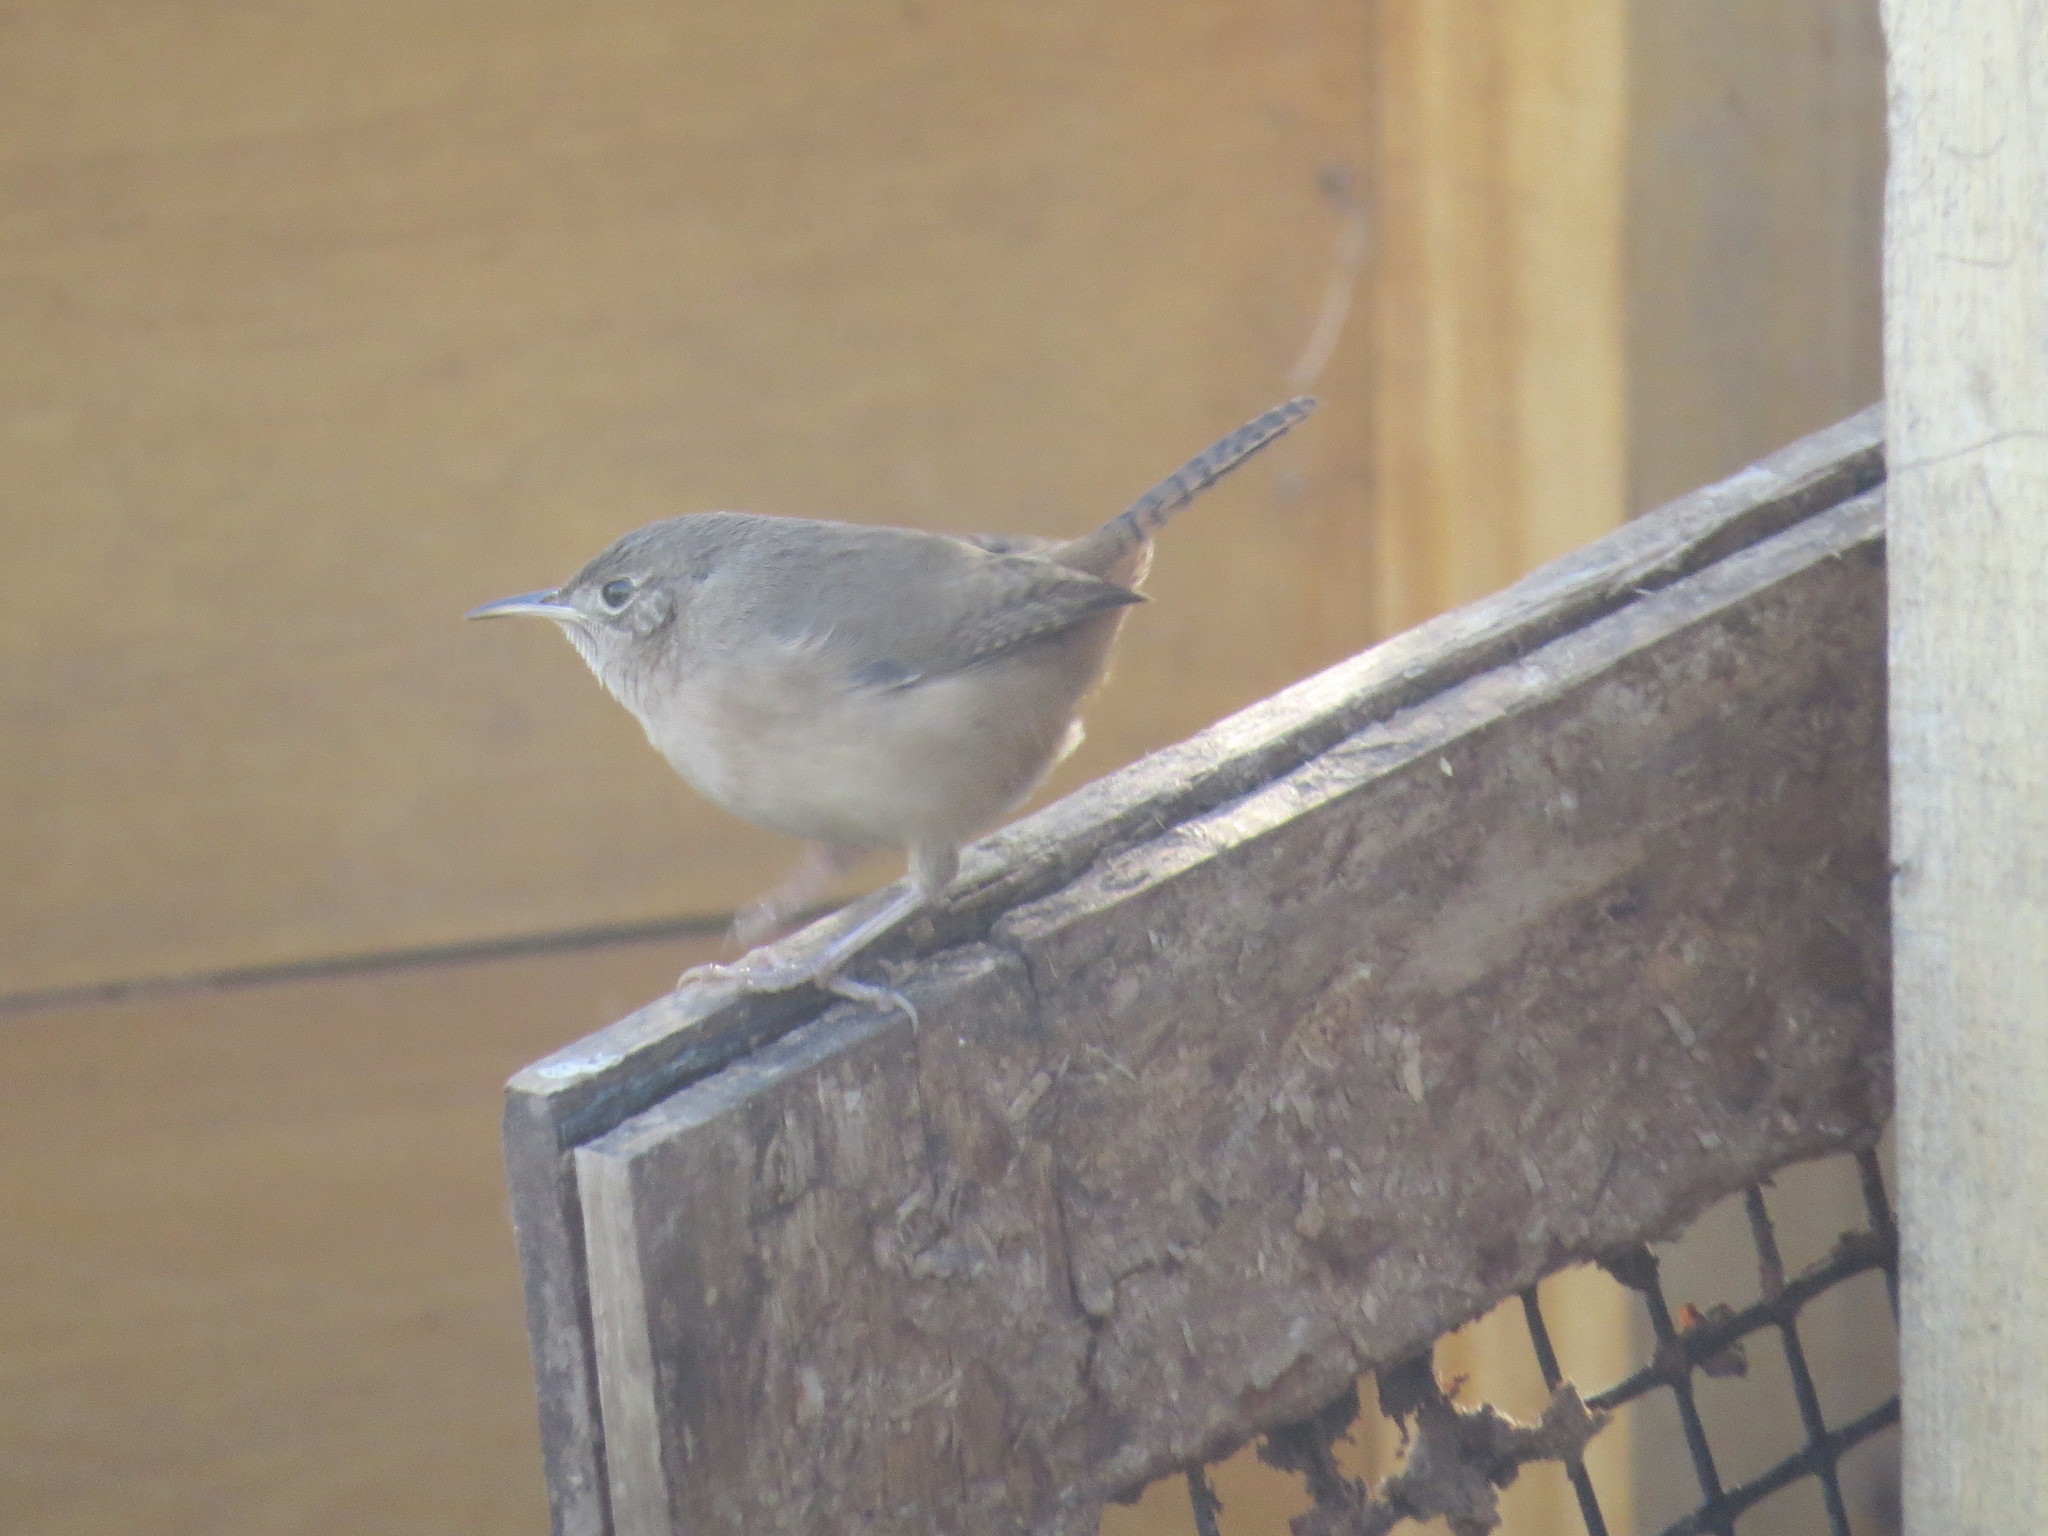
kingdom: Animalia
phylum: Chordata
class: Aves
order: Passeriformes
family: Troglodytidae
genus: Troglodytes
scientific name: Troglodytes aedon
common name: House wren
